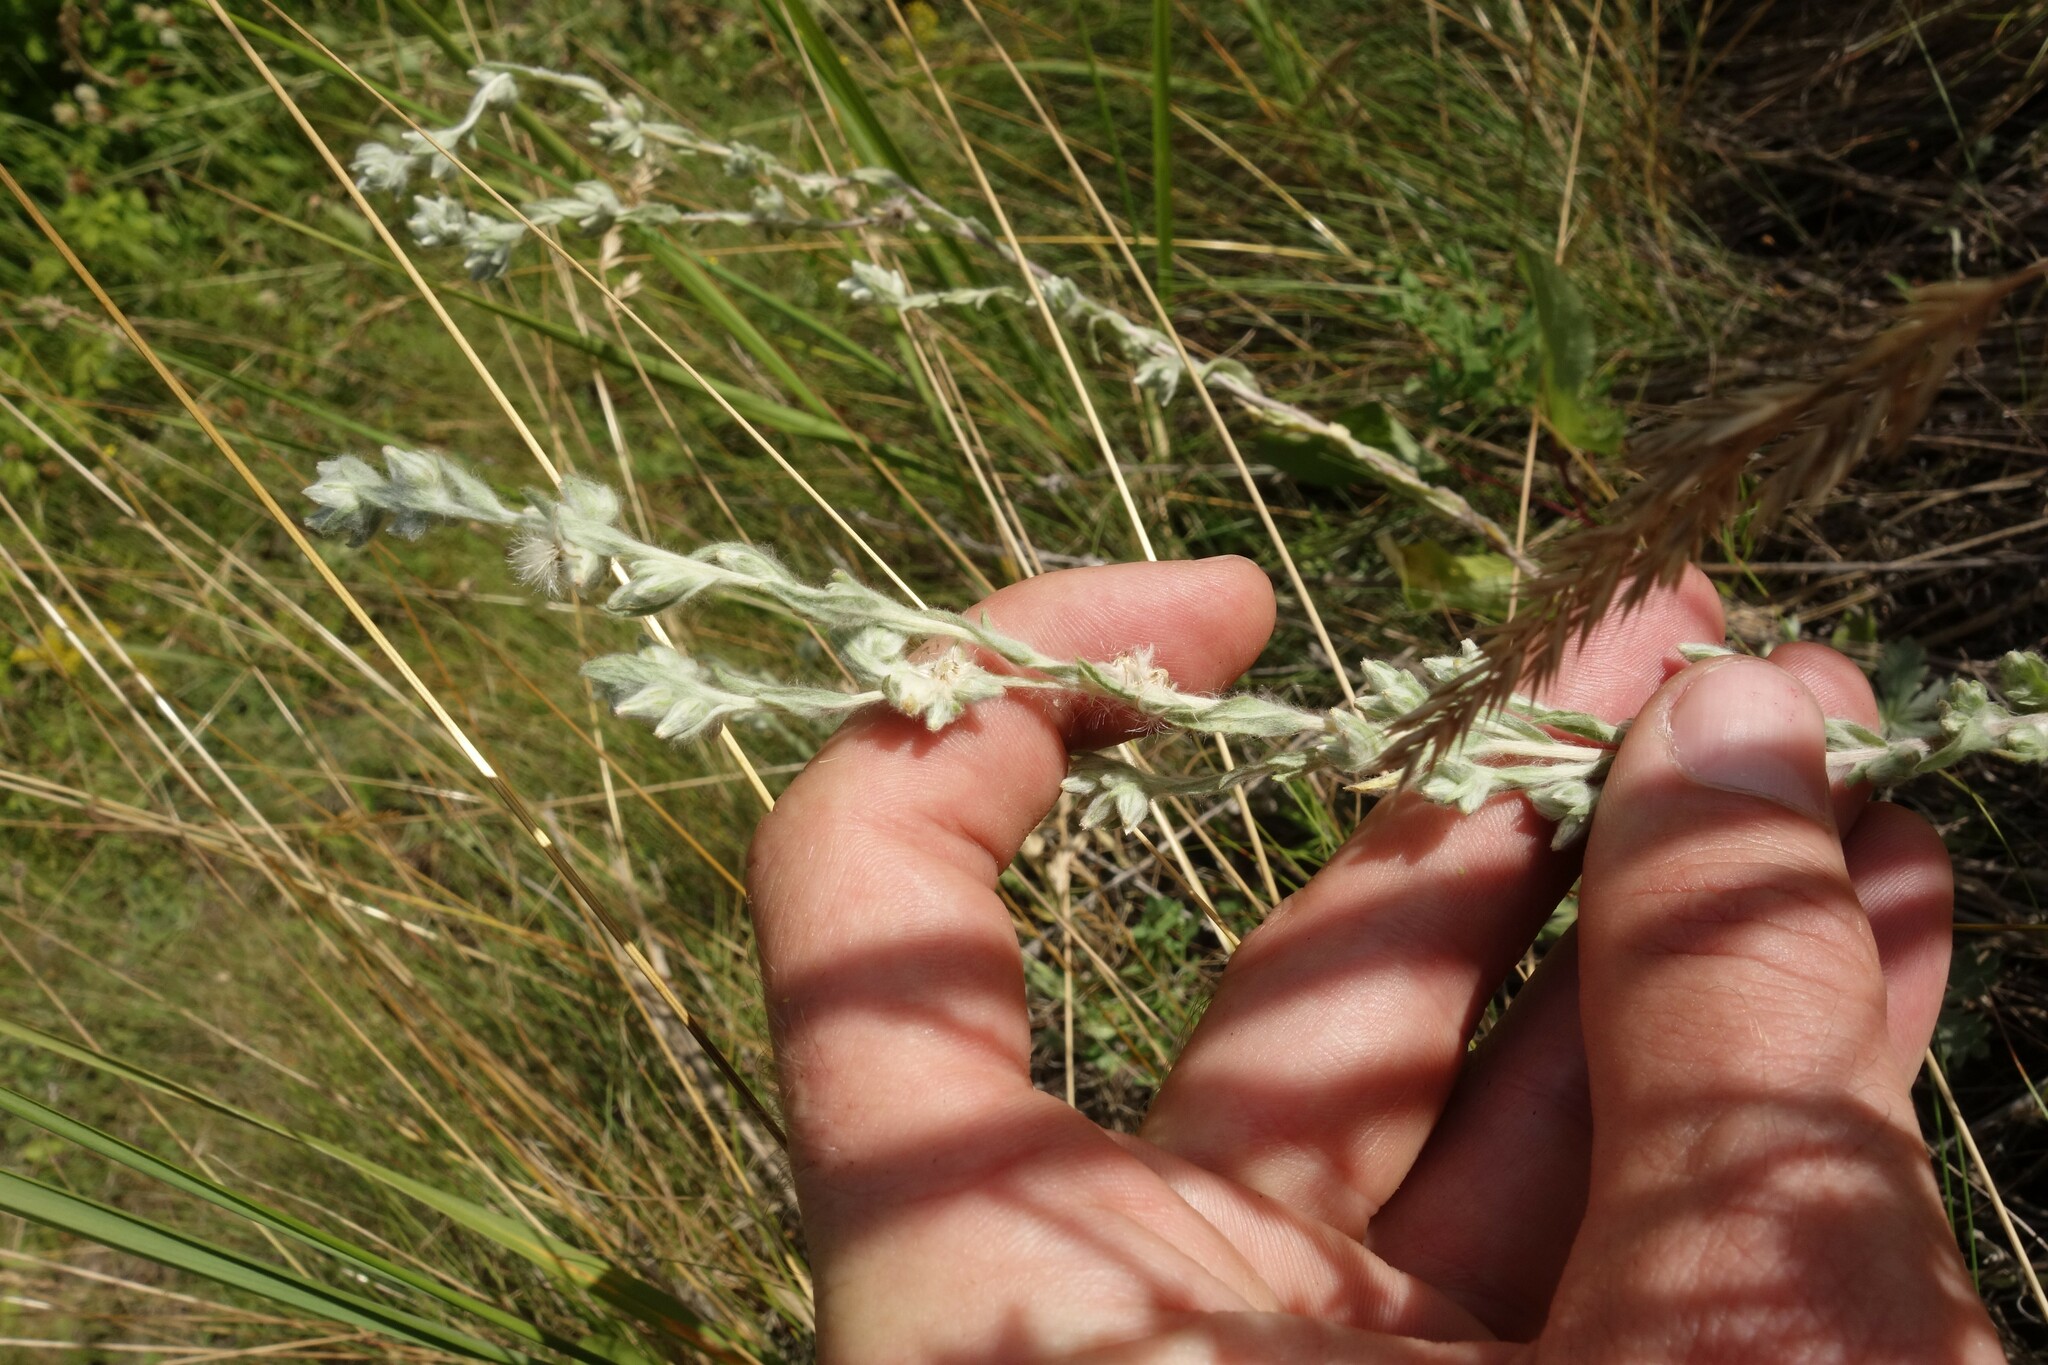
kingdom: Plantae
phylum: Tracheophyta
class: Magnoliopsida
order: Asterales
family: Asteraceae
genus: Filago
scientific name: Filago arvensis
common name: Field cudweed
